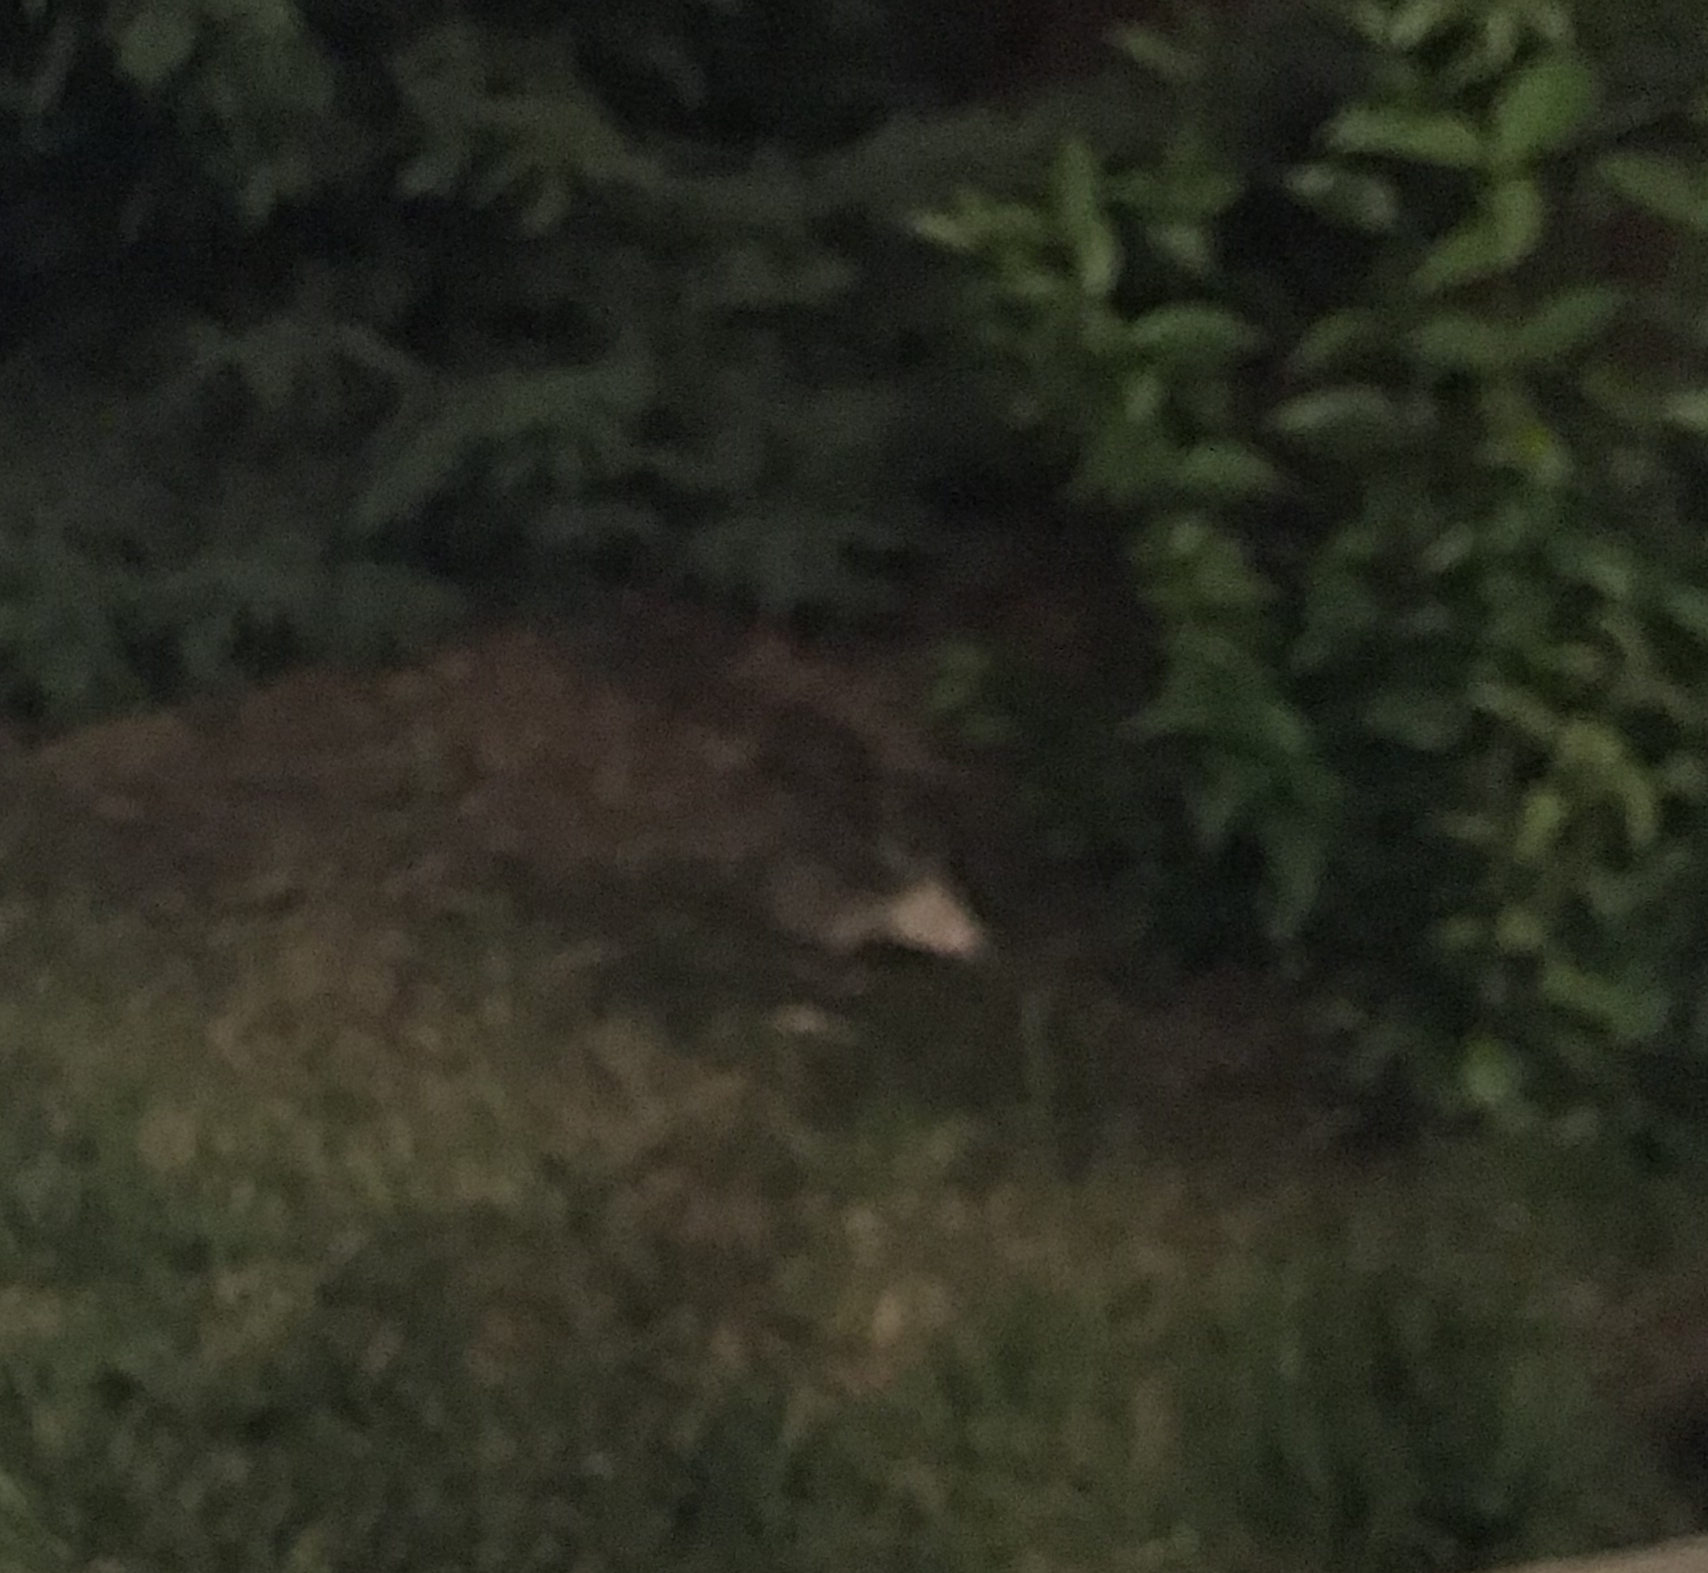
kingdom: Animalia
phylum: Chordata
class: Mammalia
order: Didelphimorphia
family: Didelphidae
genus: Didelphis
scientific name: Didelphis virginiana
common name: Virginia opossum
